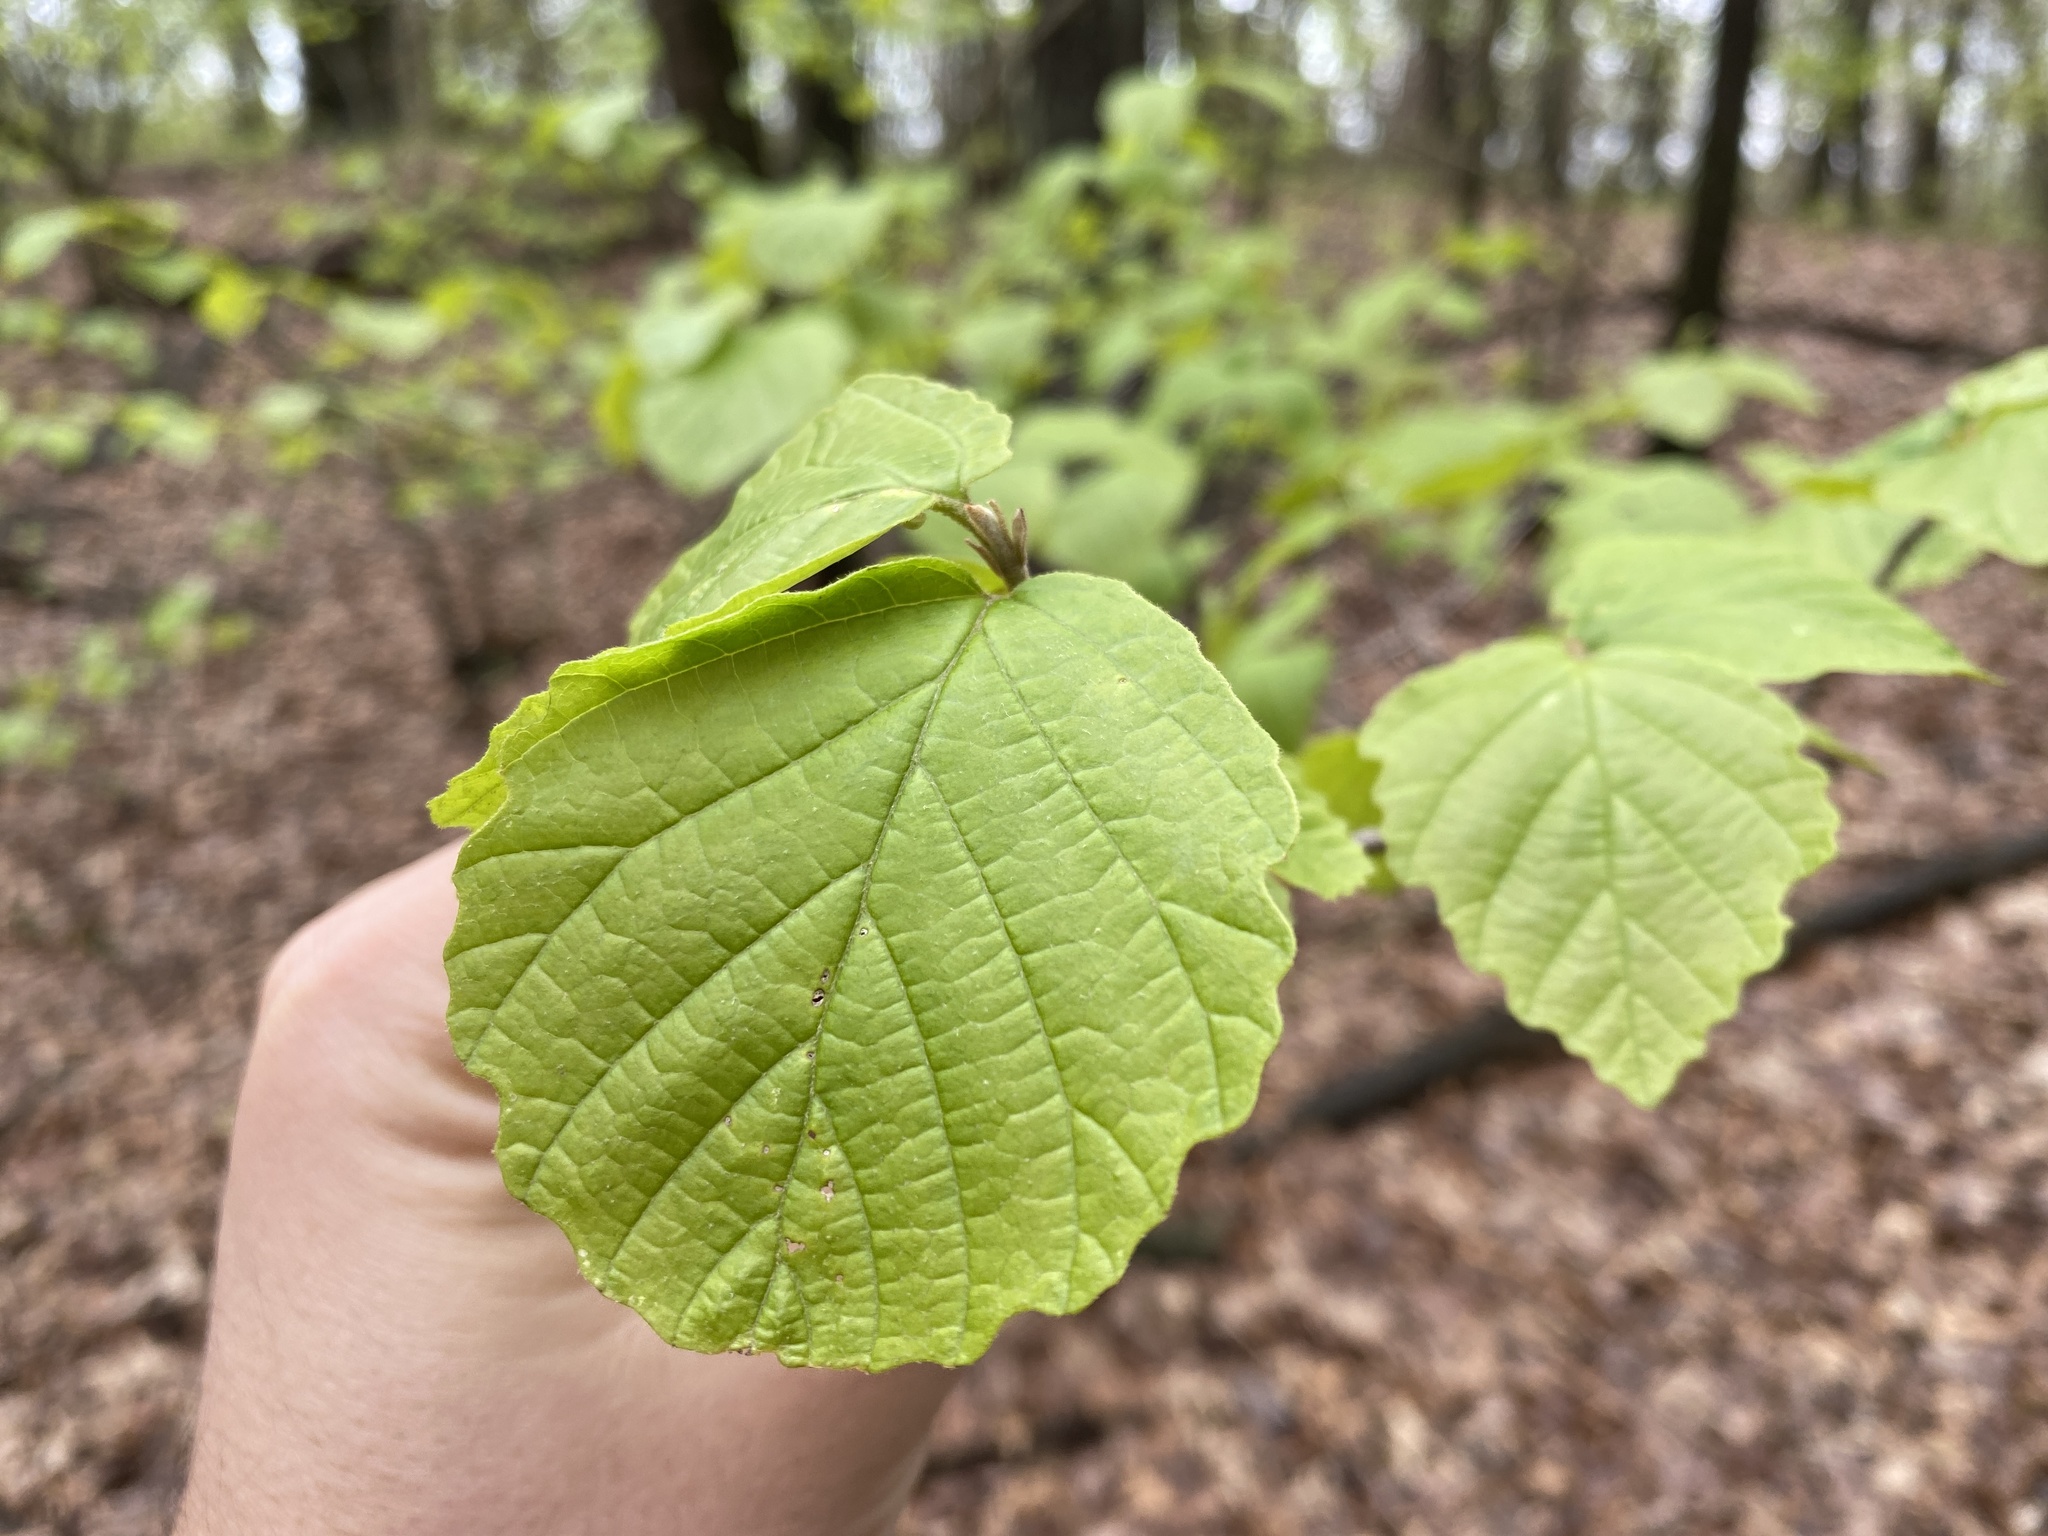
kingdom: Plantae
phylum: Tracheophyta
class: Magnoliopsida
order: Saxifragales
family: Hamamelidaceae
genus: Hamamelis
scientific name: Hamamelis virginiana
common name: Witch-hazel
